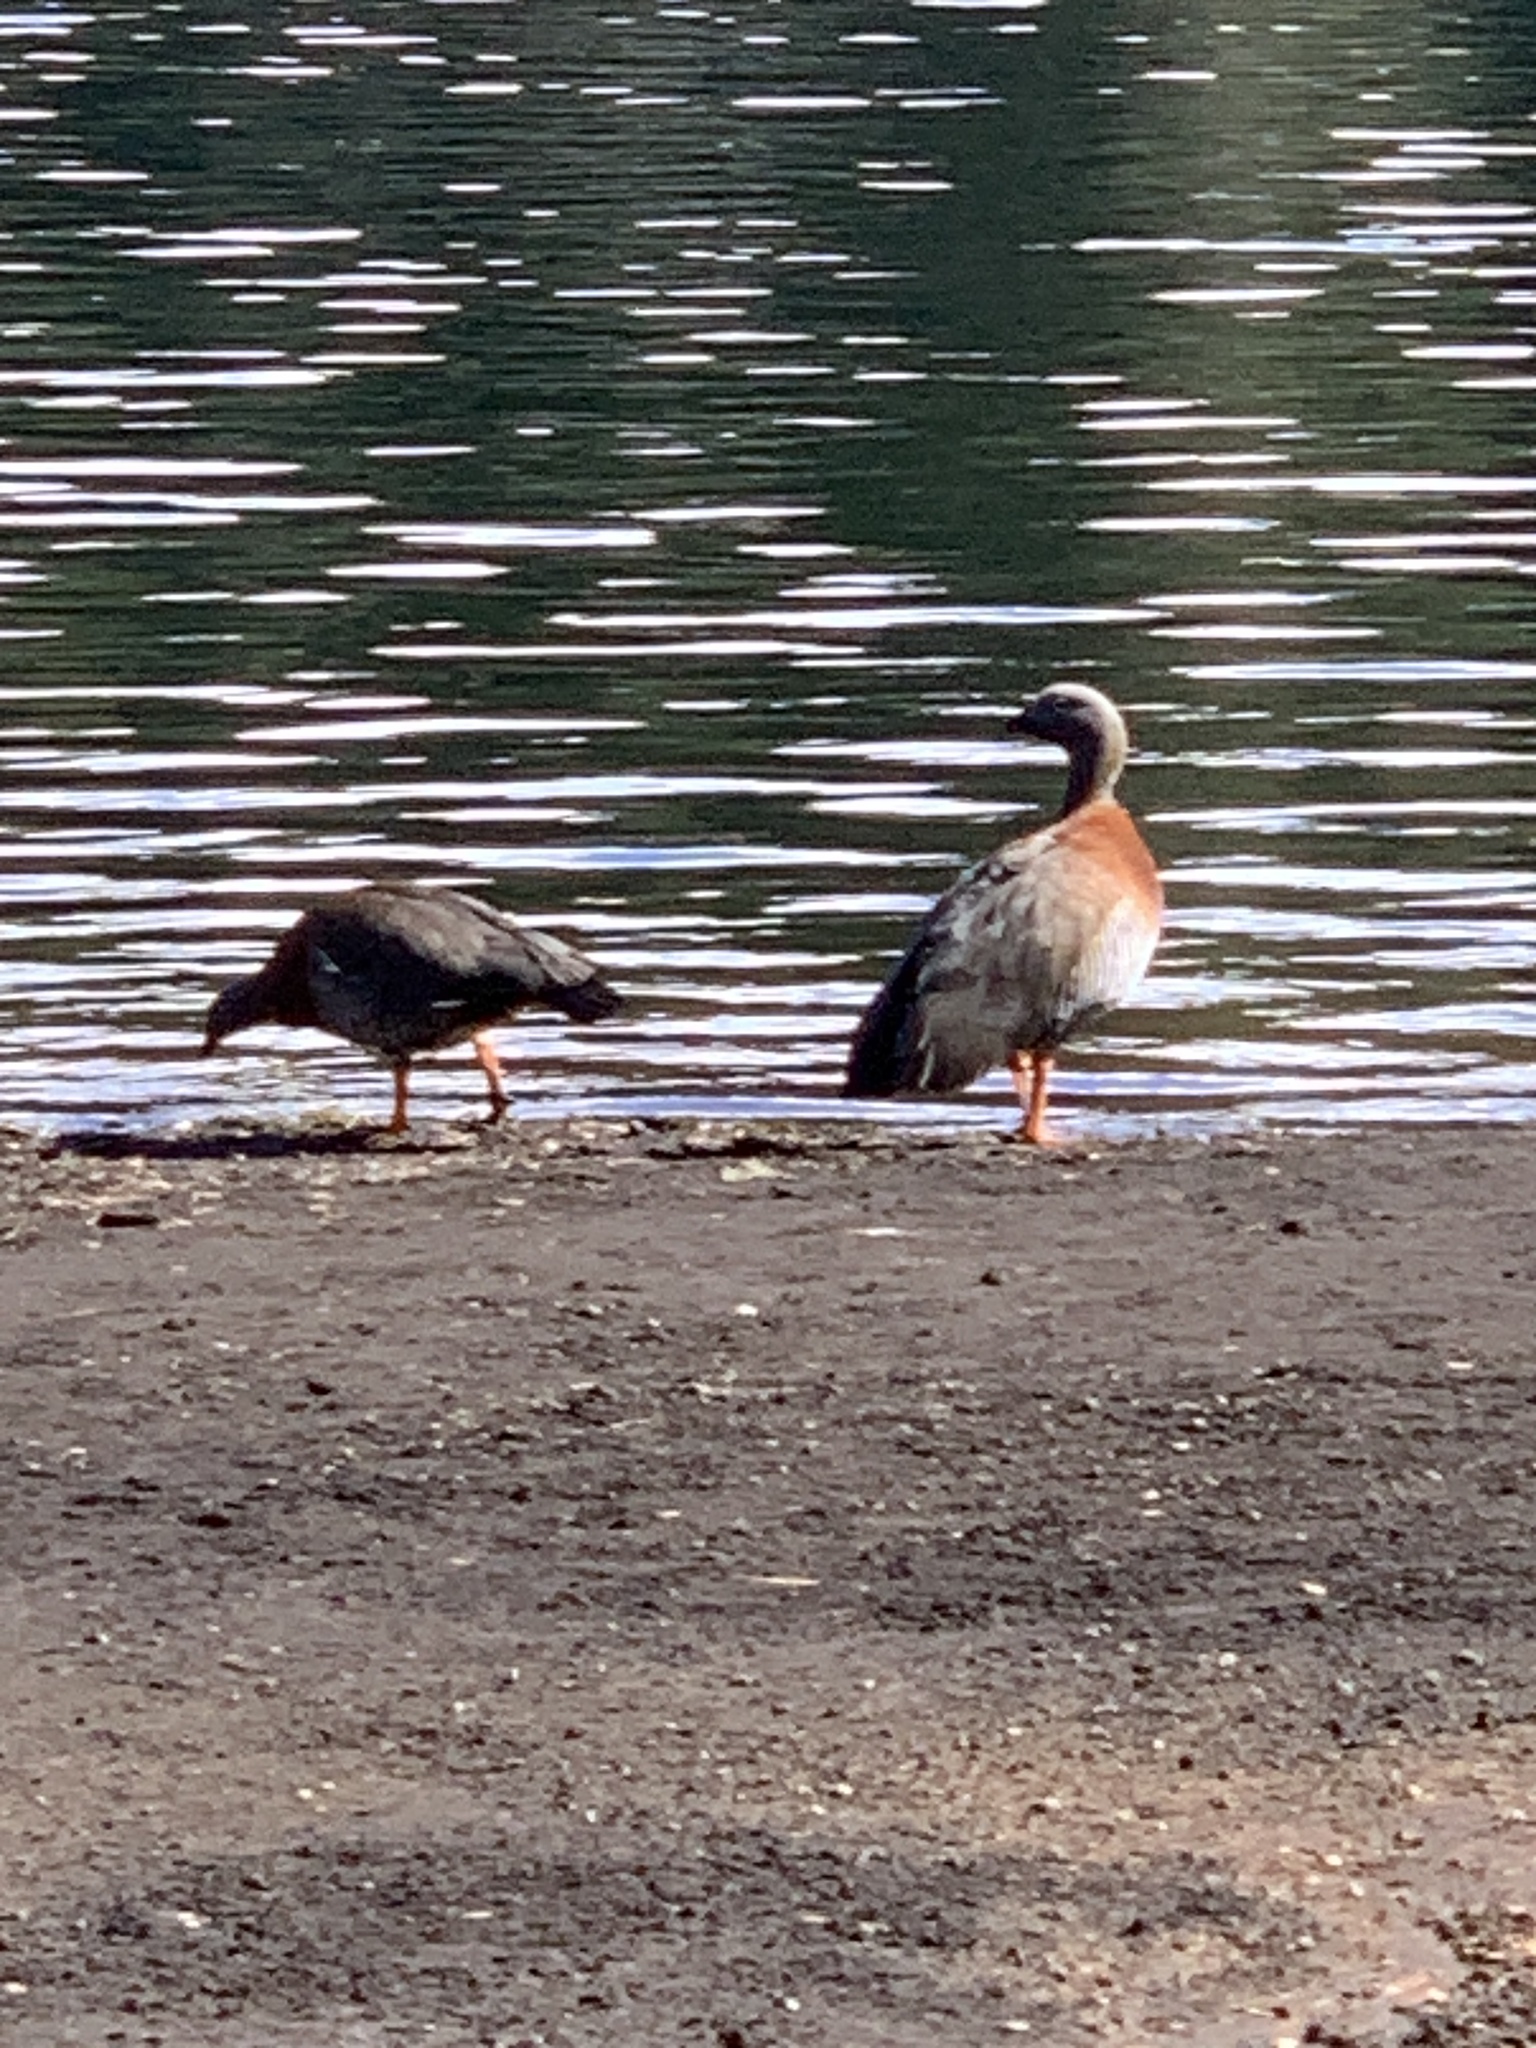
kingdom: Animalia
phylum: Chordata
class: Aves
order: Anseriformes
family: Anatidae
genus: Chloephaga
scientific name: Chloephaga poliocephala
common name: Ashy-headed goose
